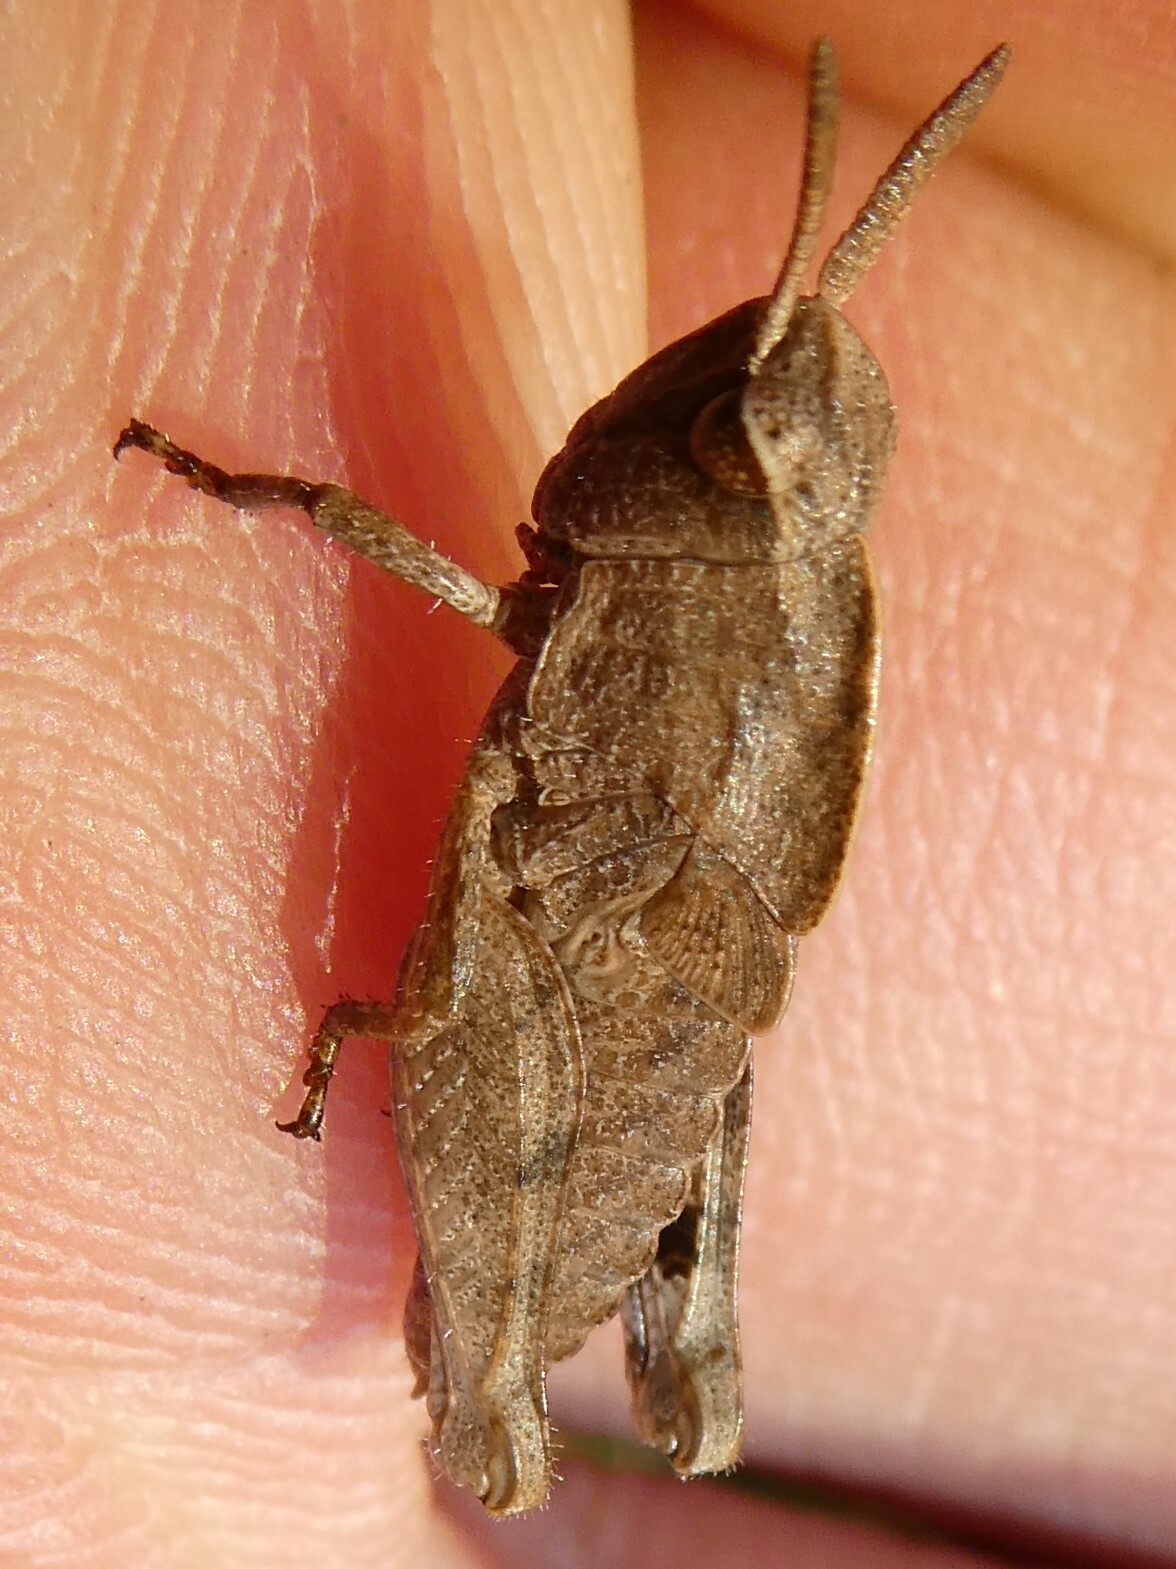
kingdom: Animalia
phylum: Arthropoda
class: Insecta
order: Orthoptera
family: Acrididae
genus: Chortophaga
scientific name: Chortophaga viridifasciata
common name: Green-striped grasshopper
